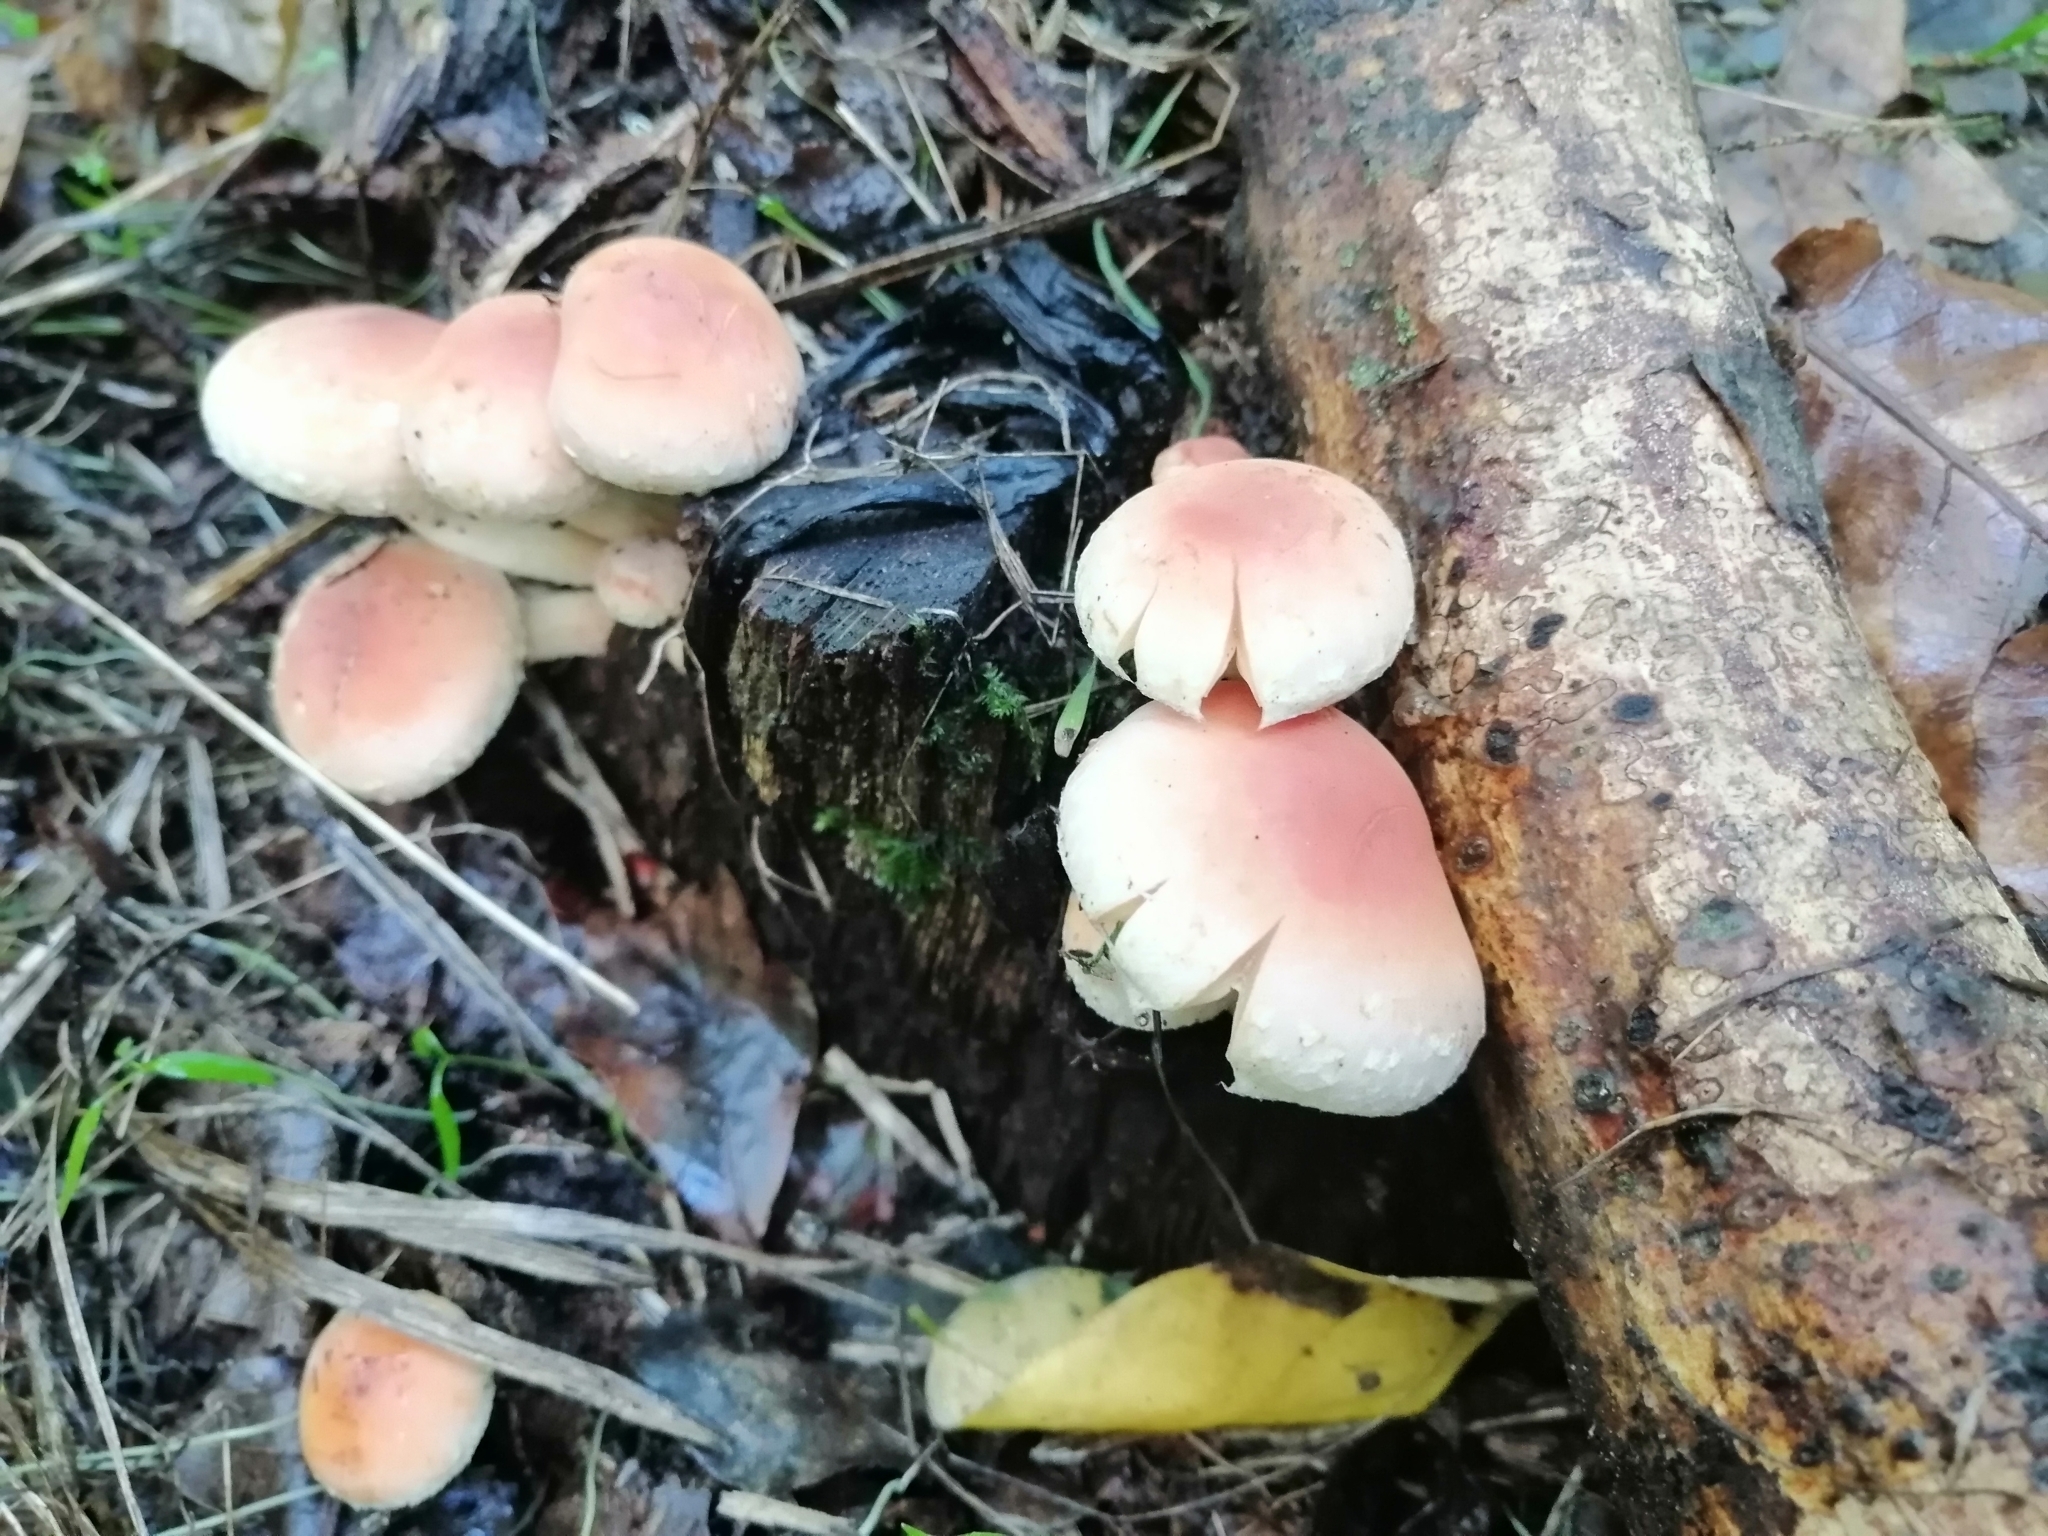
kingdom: Fungi
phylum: Basidiomycota
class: Agaricomycetes
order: Agaricales
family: Strophariaceae
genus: Hypholoma
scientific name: Hypholoma lateritium
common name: Brick caps
